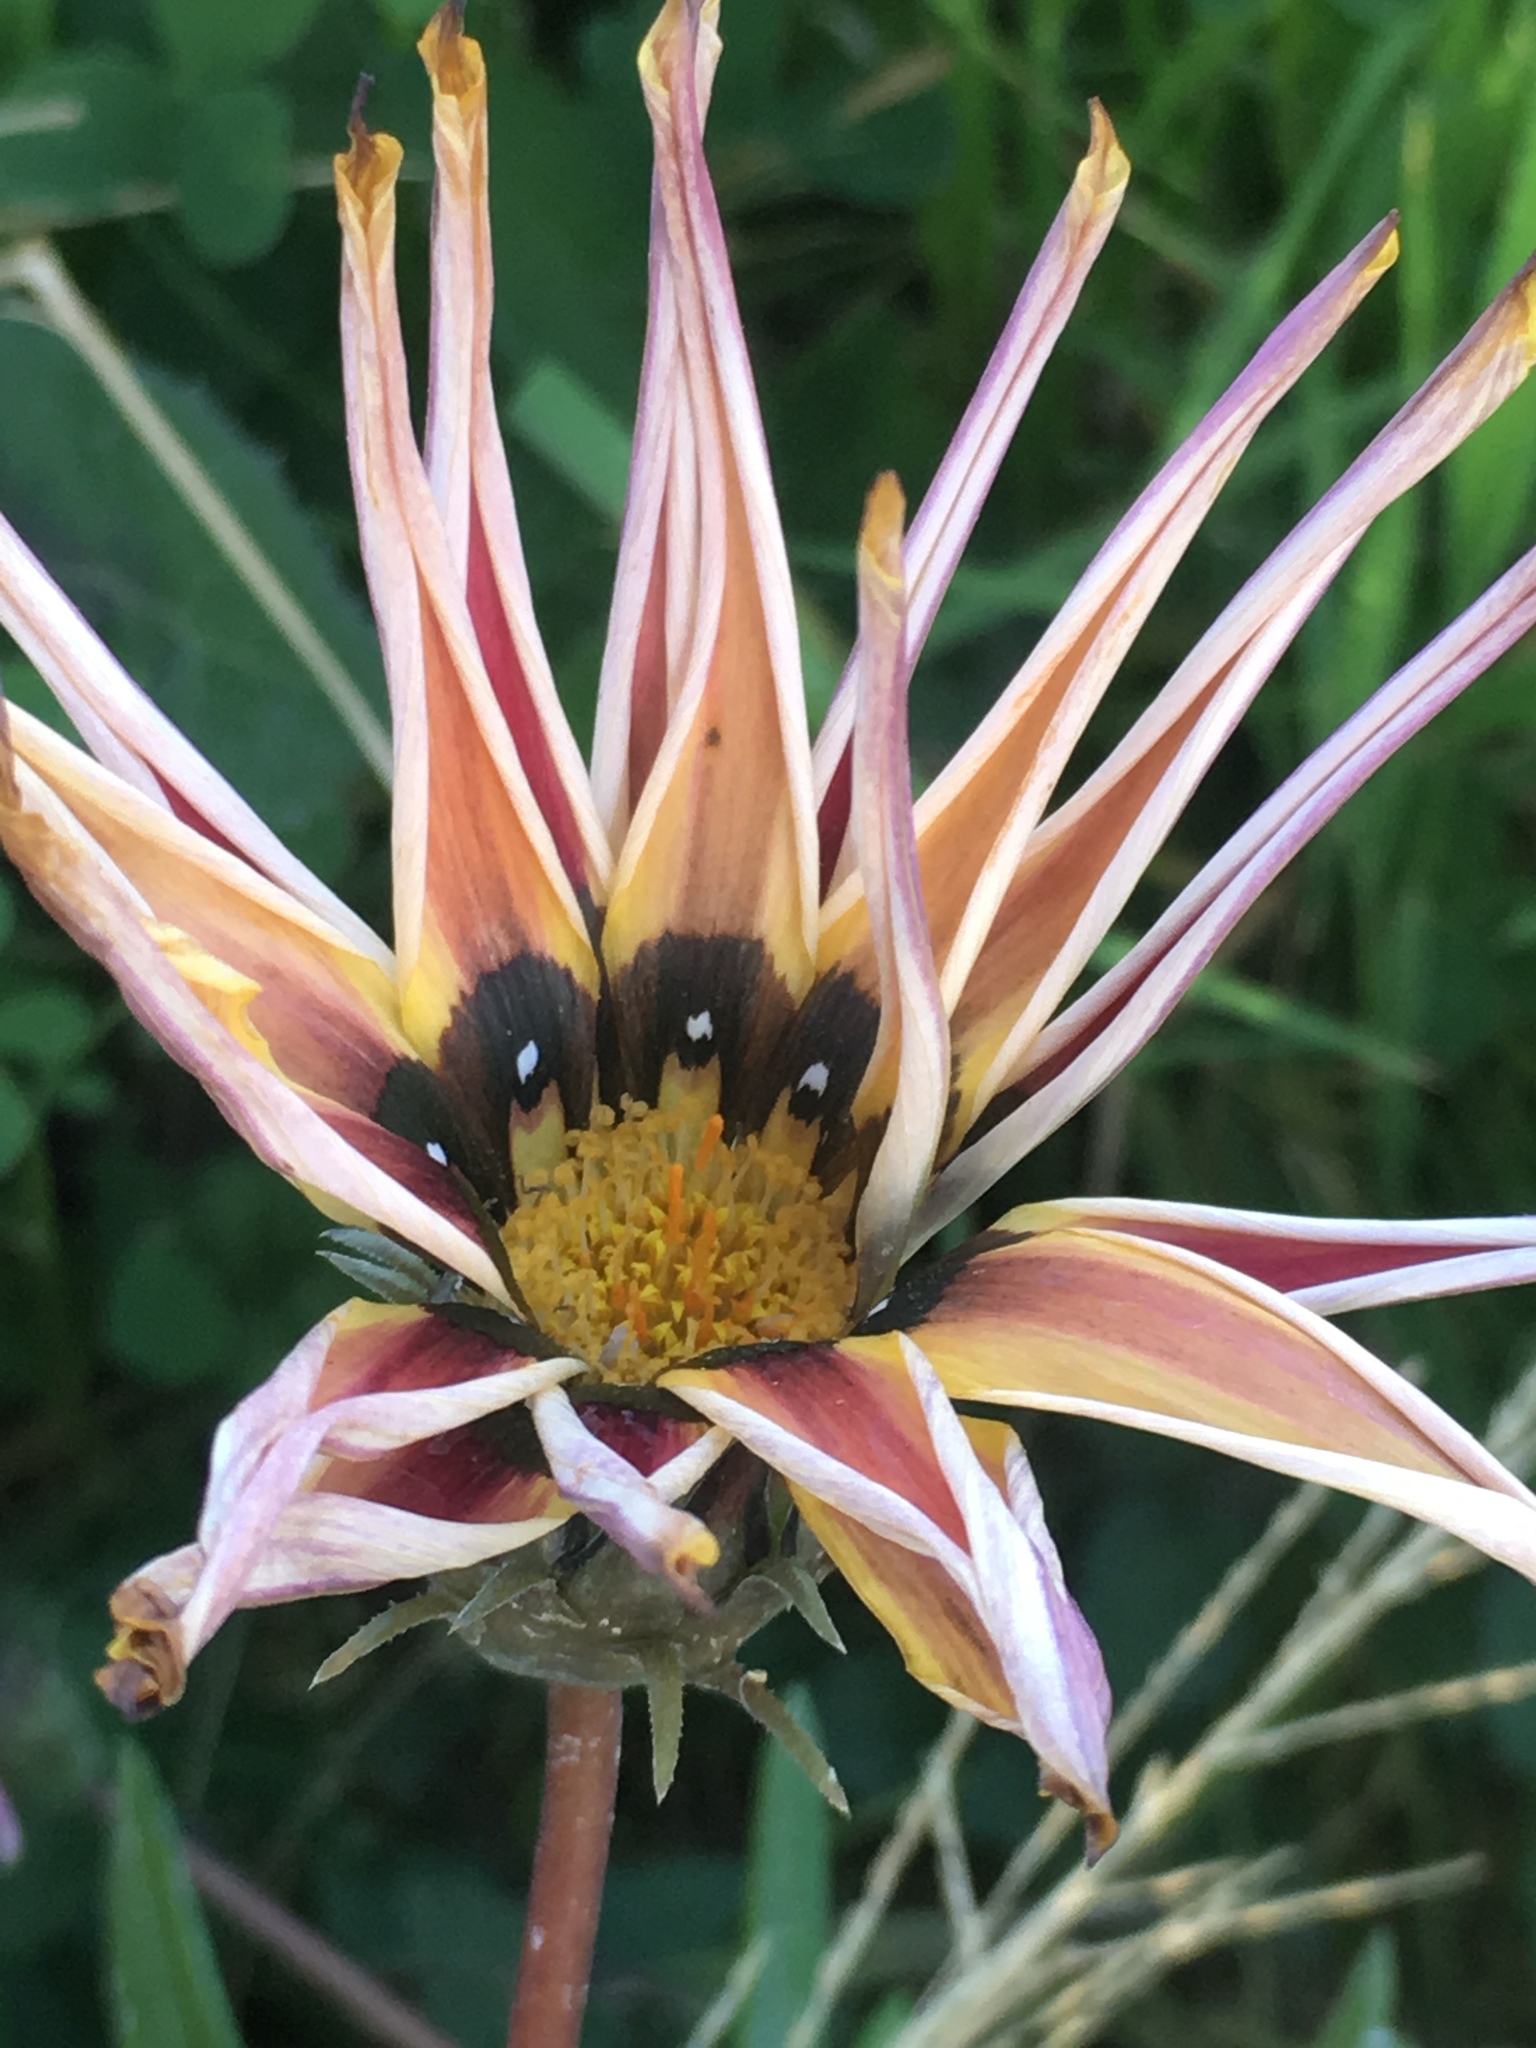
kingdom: Plantae
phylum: Tracheophyta
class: Magnoliopsida
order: Asterales
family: Asteraceae
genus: Gazania
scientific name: Gazania splendens
